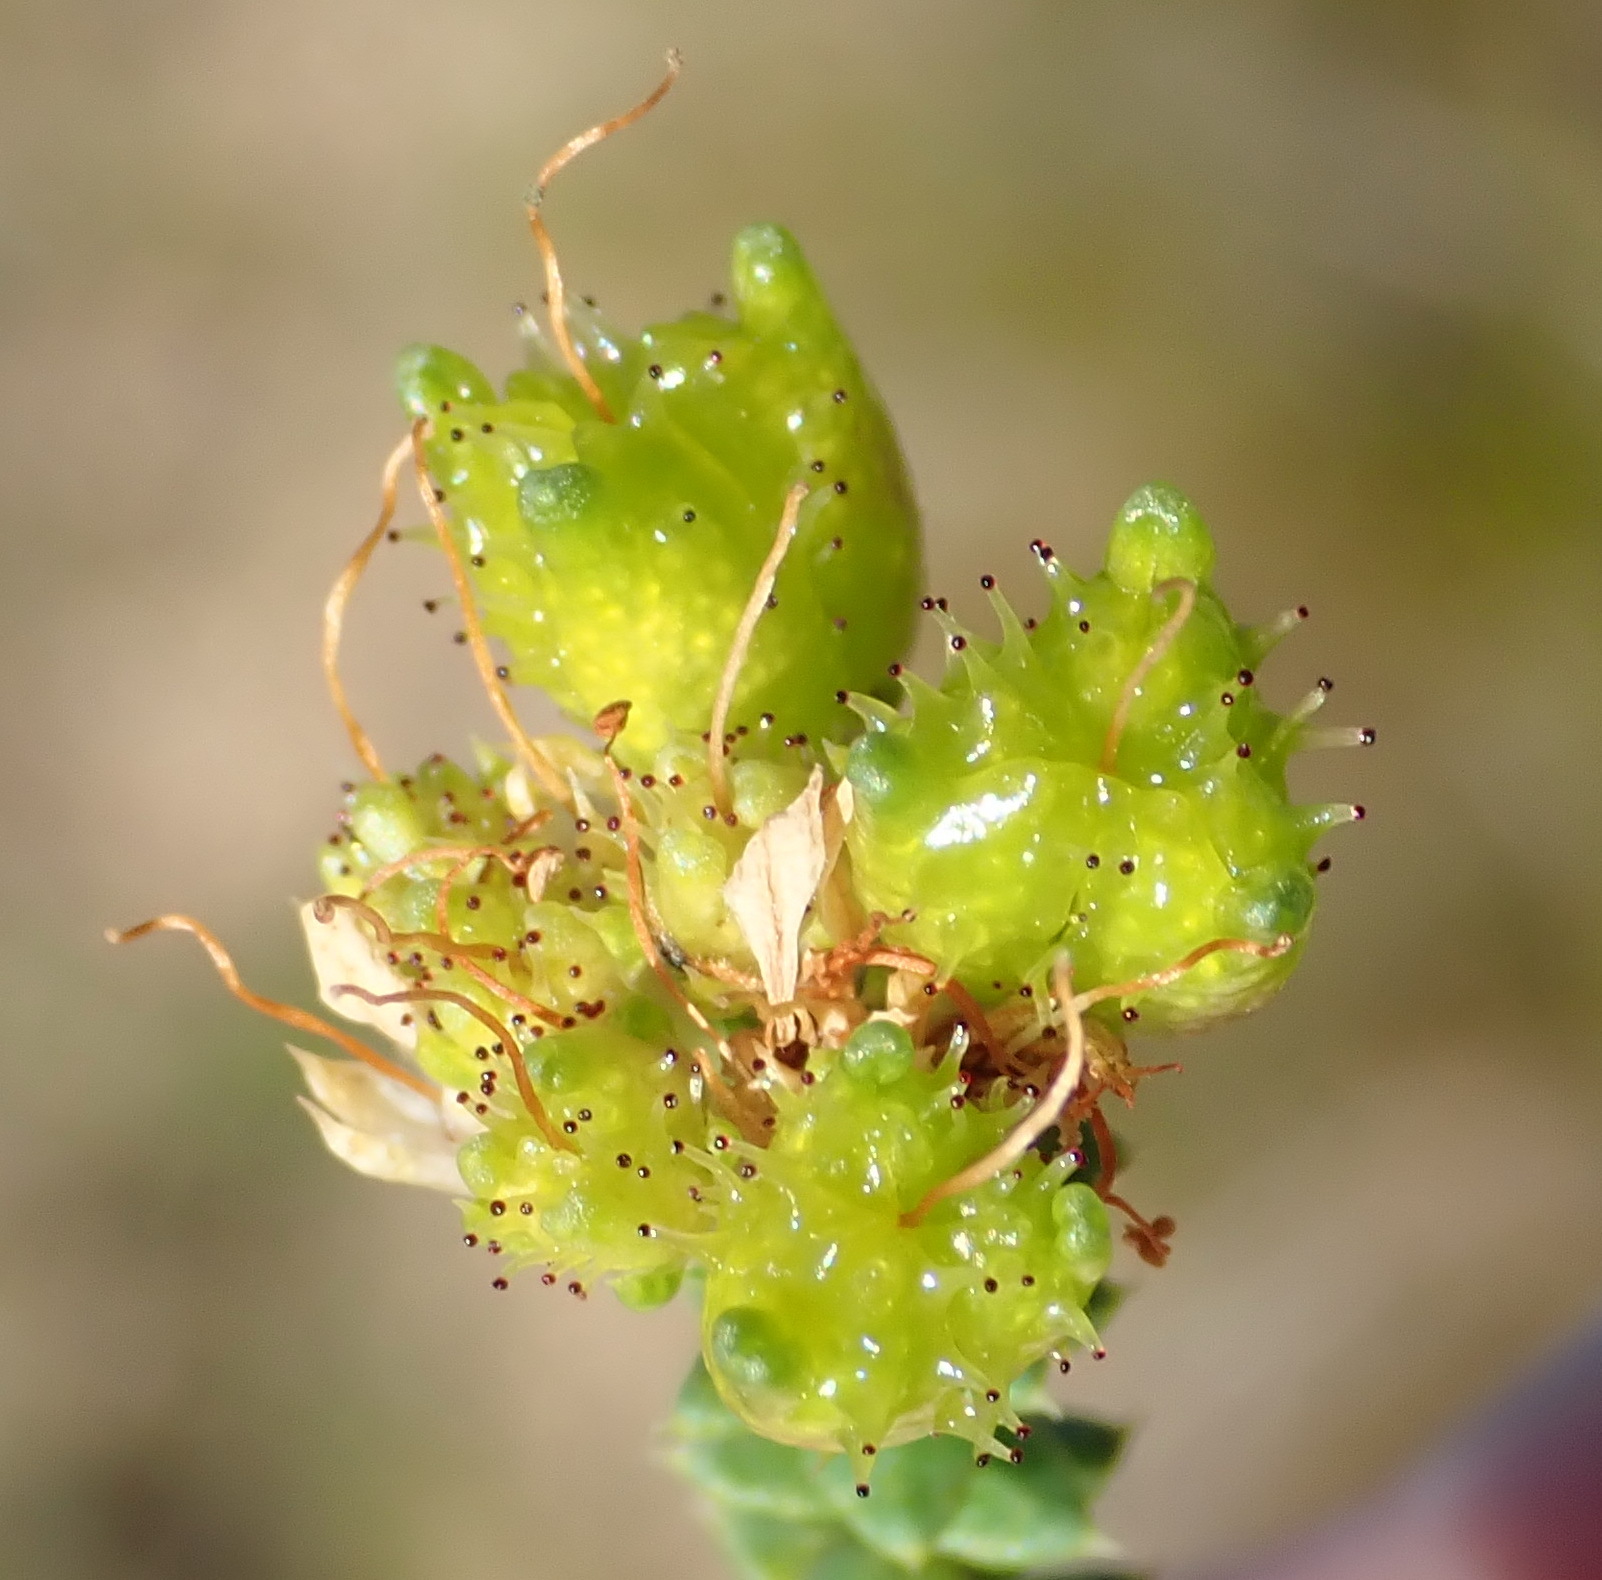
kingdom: Plantae
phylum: Tracheophyta
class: Magnoliopsida
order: Sapindales
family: Rutaceae
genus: Agathosma
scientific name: Agathosma apiculata
